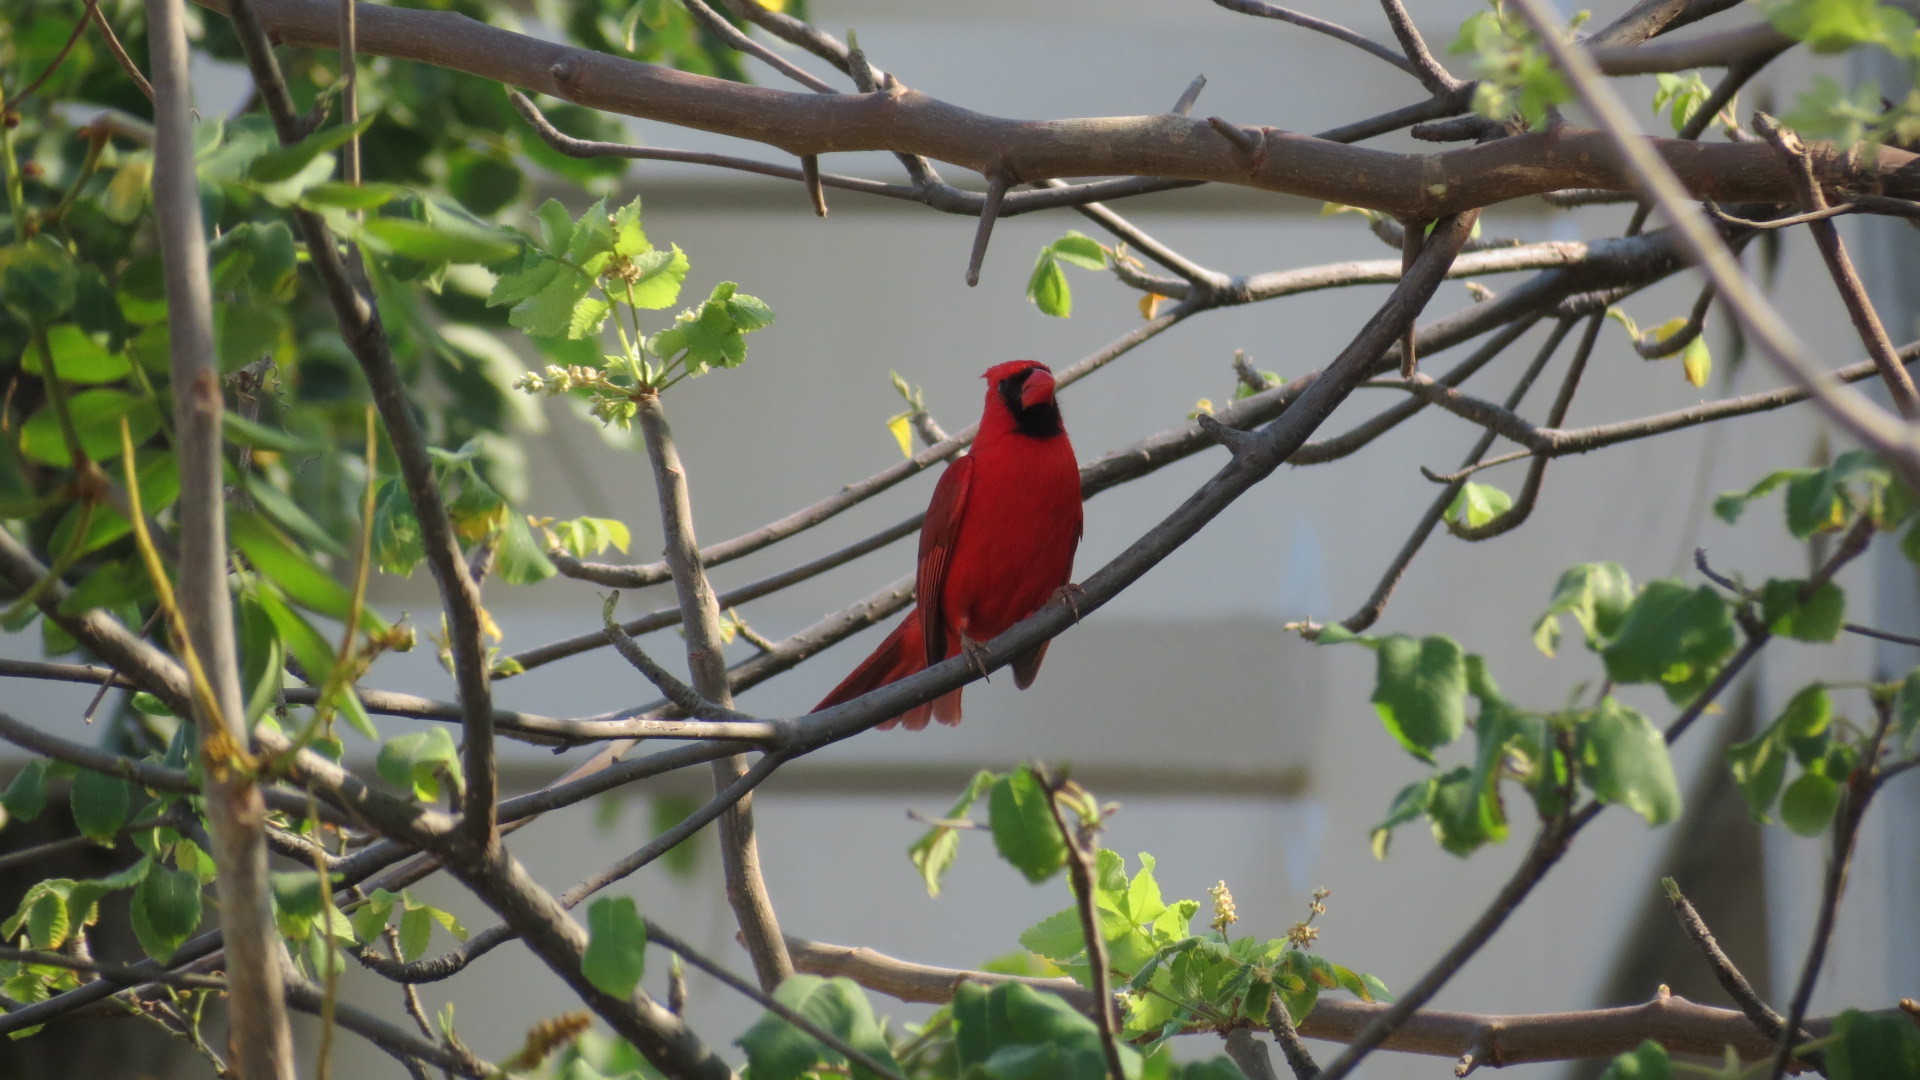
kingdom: Animalia
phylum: Chordata
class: Aves
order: Passeriformes
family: Cardinalidae
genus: Cardinalis
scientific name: Cardinalis cardinalis
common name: Northern cardinal
